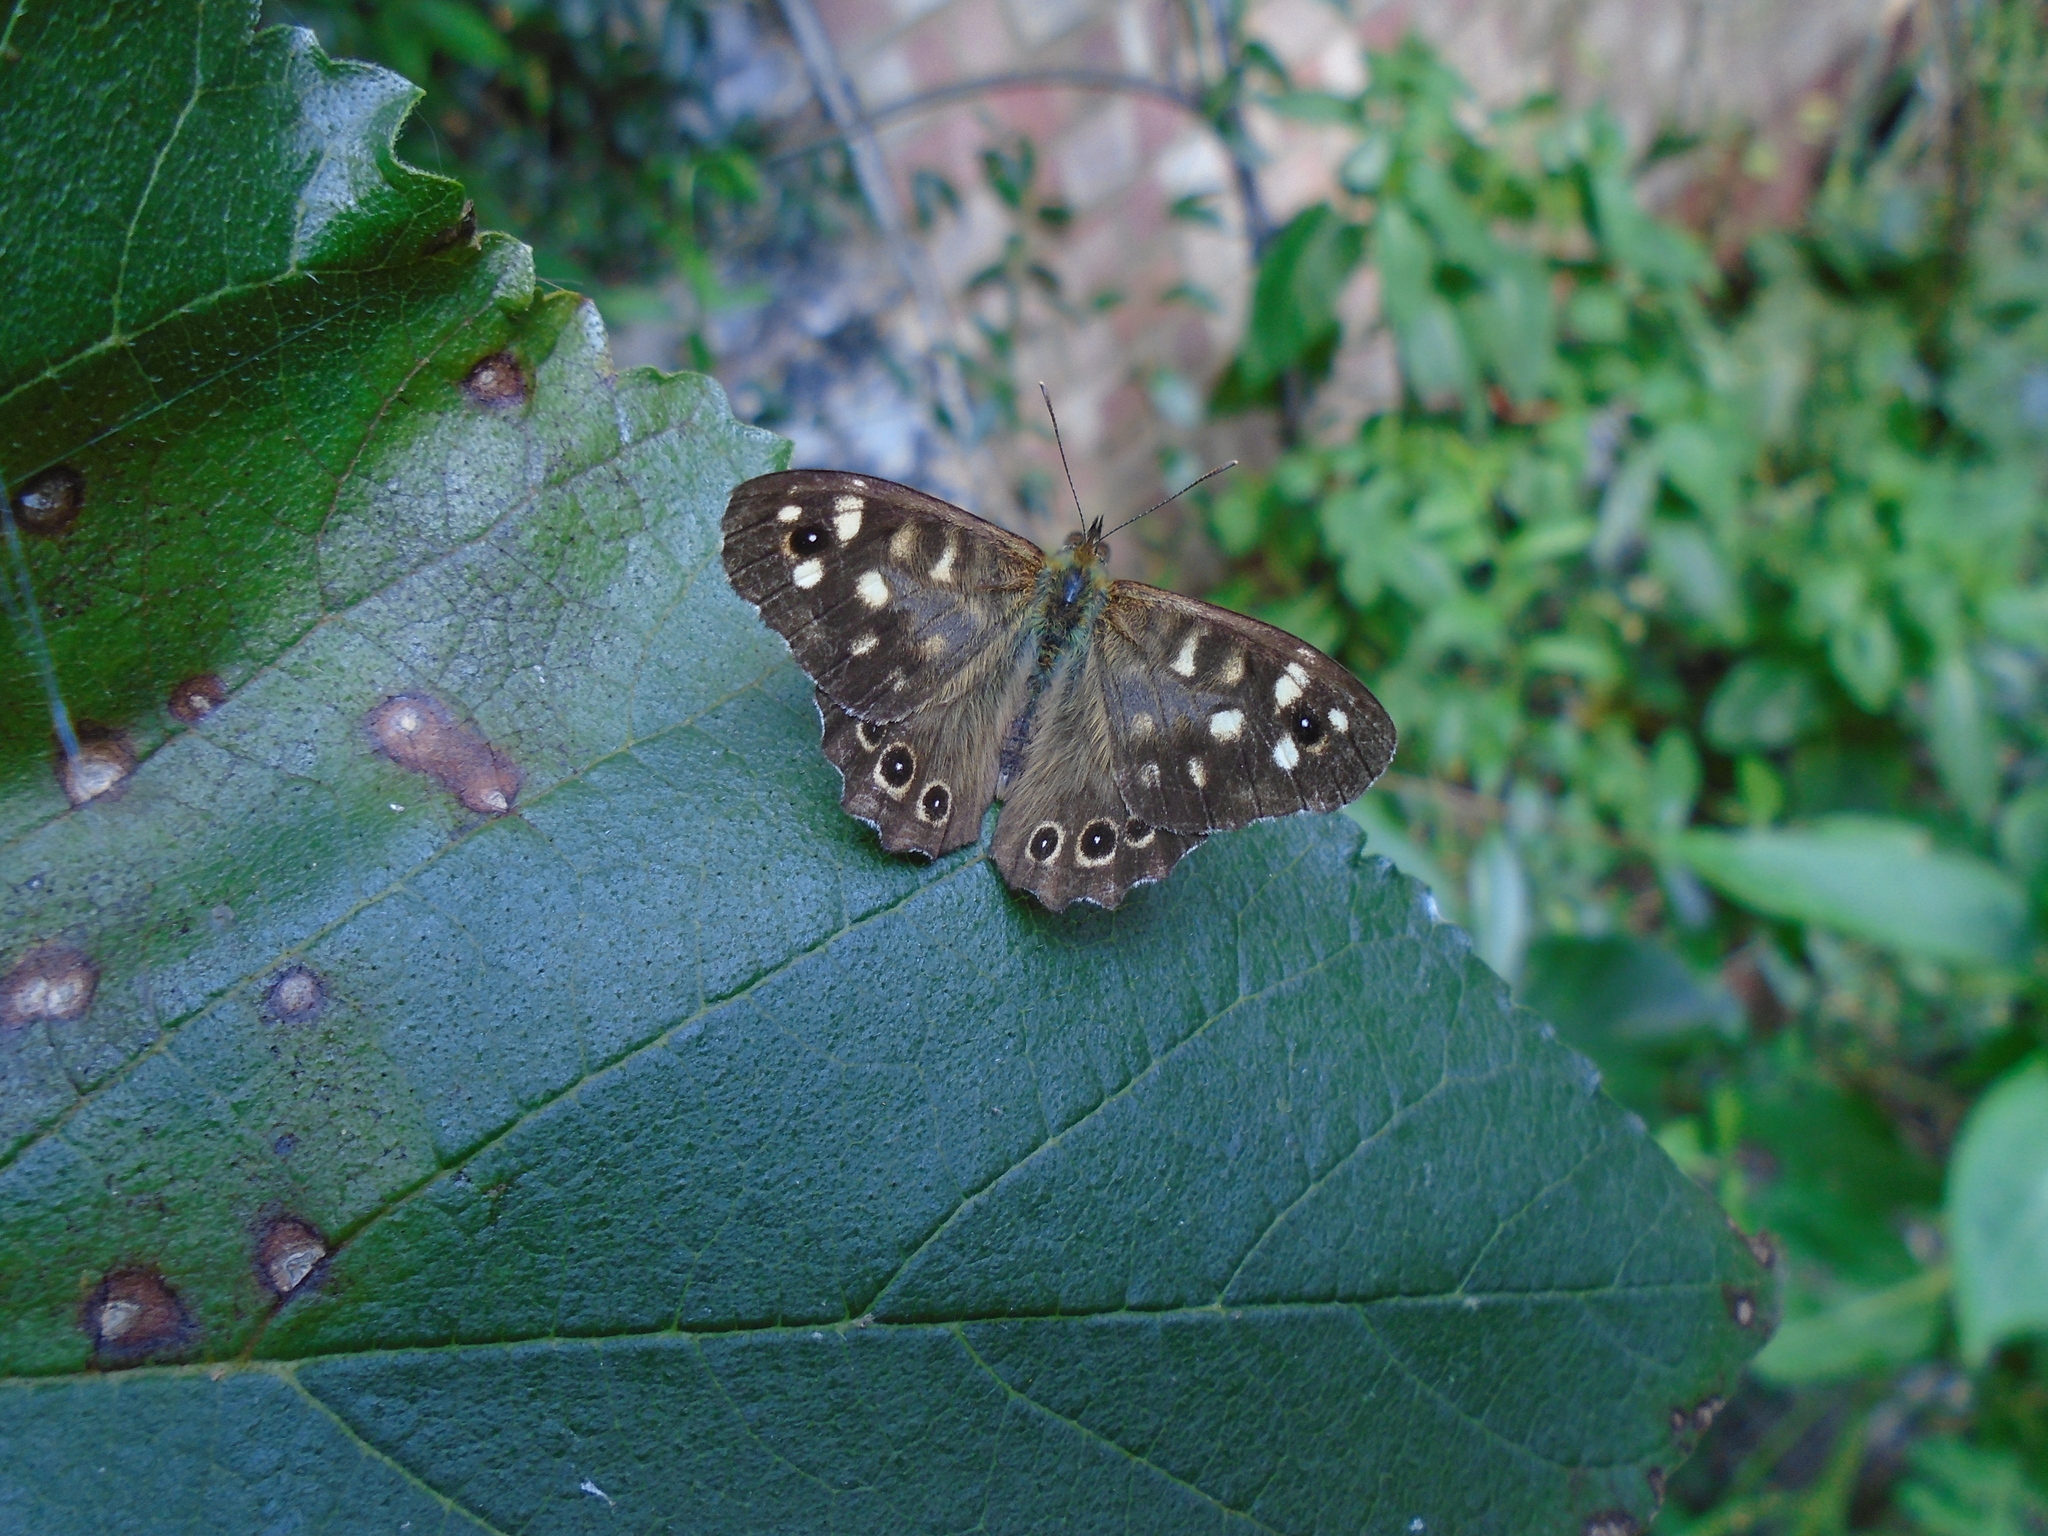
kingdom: Animalia
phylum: Arthropoda
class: Insecta
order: Lepidoptera
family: Nymphalidae
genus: Pararge
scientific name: Pararge aegeria
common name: Speckled wood
